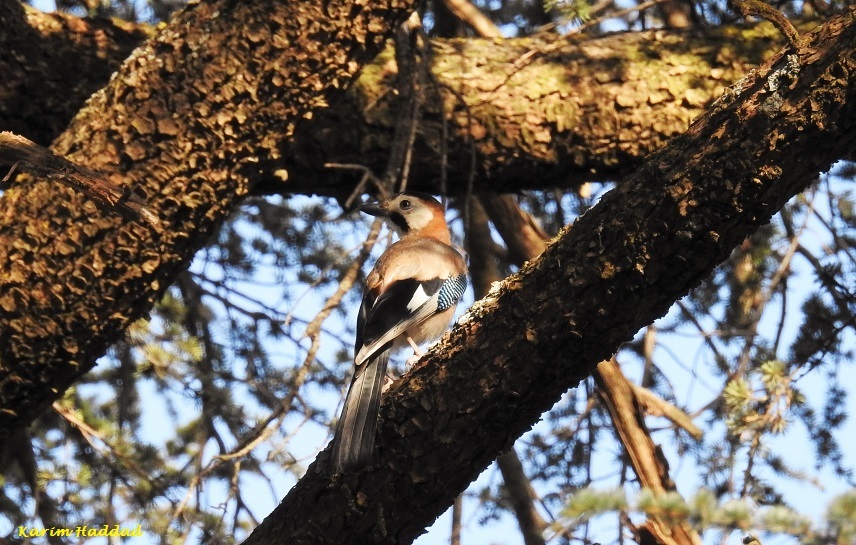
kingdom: Animalia
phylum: Chordata
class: Aves
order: Passeriformes
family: Corvidae
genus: Garrulus
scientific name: Garrulus glandarius
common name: Eurasian jay
